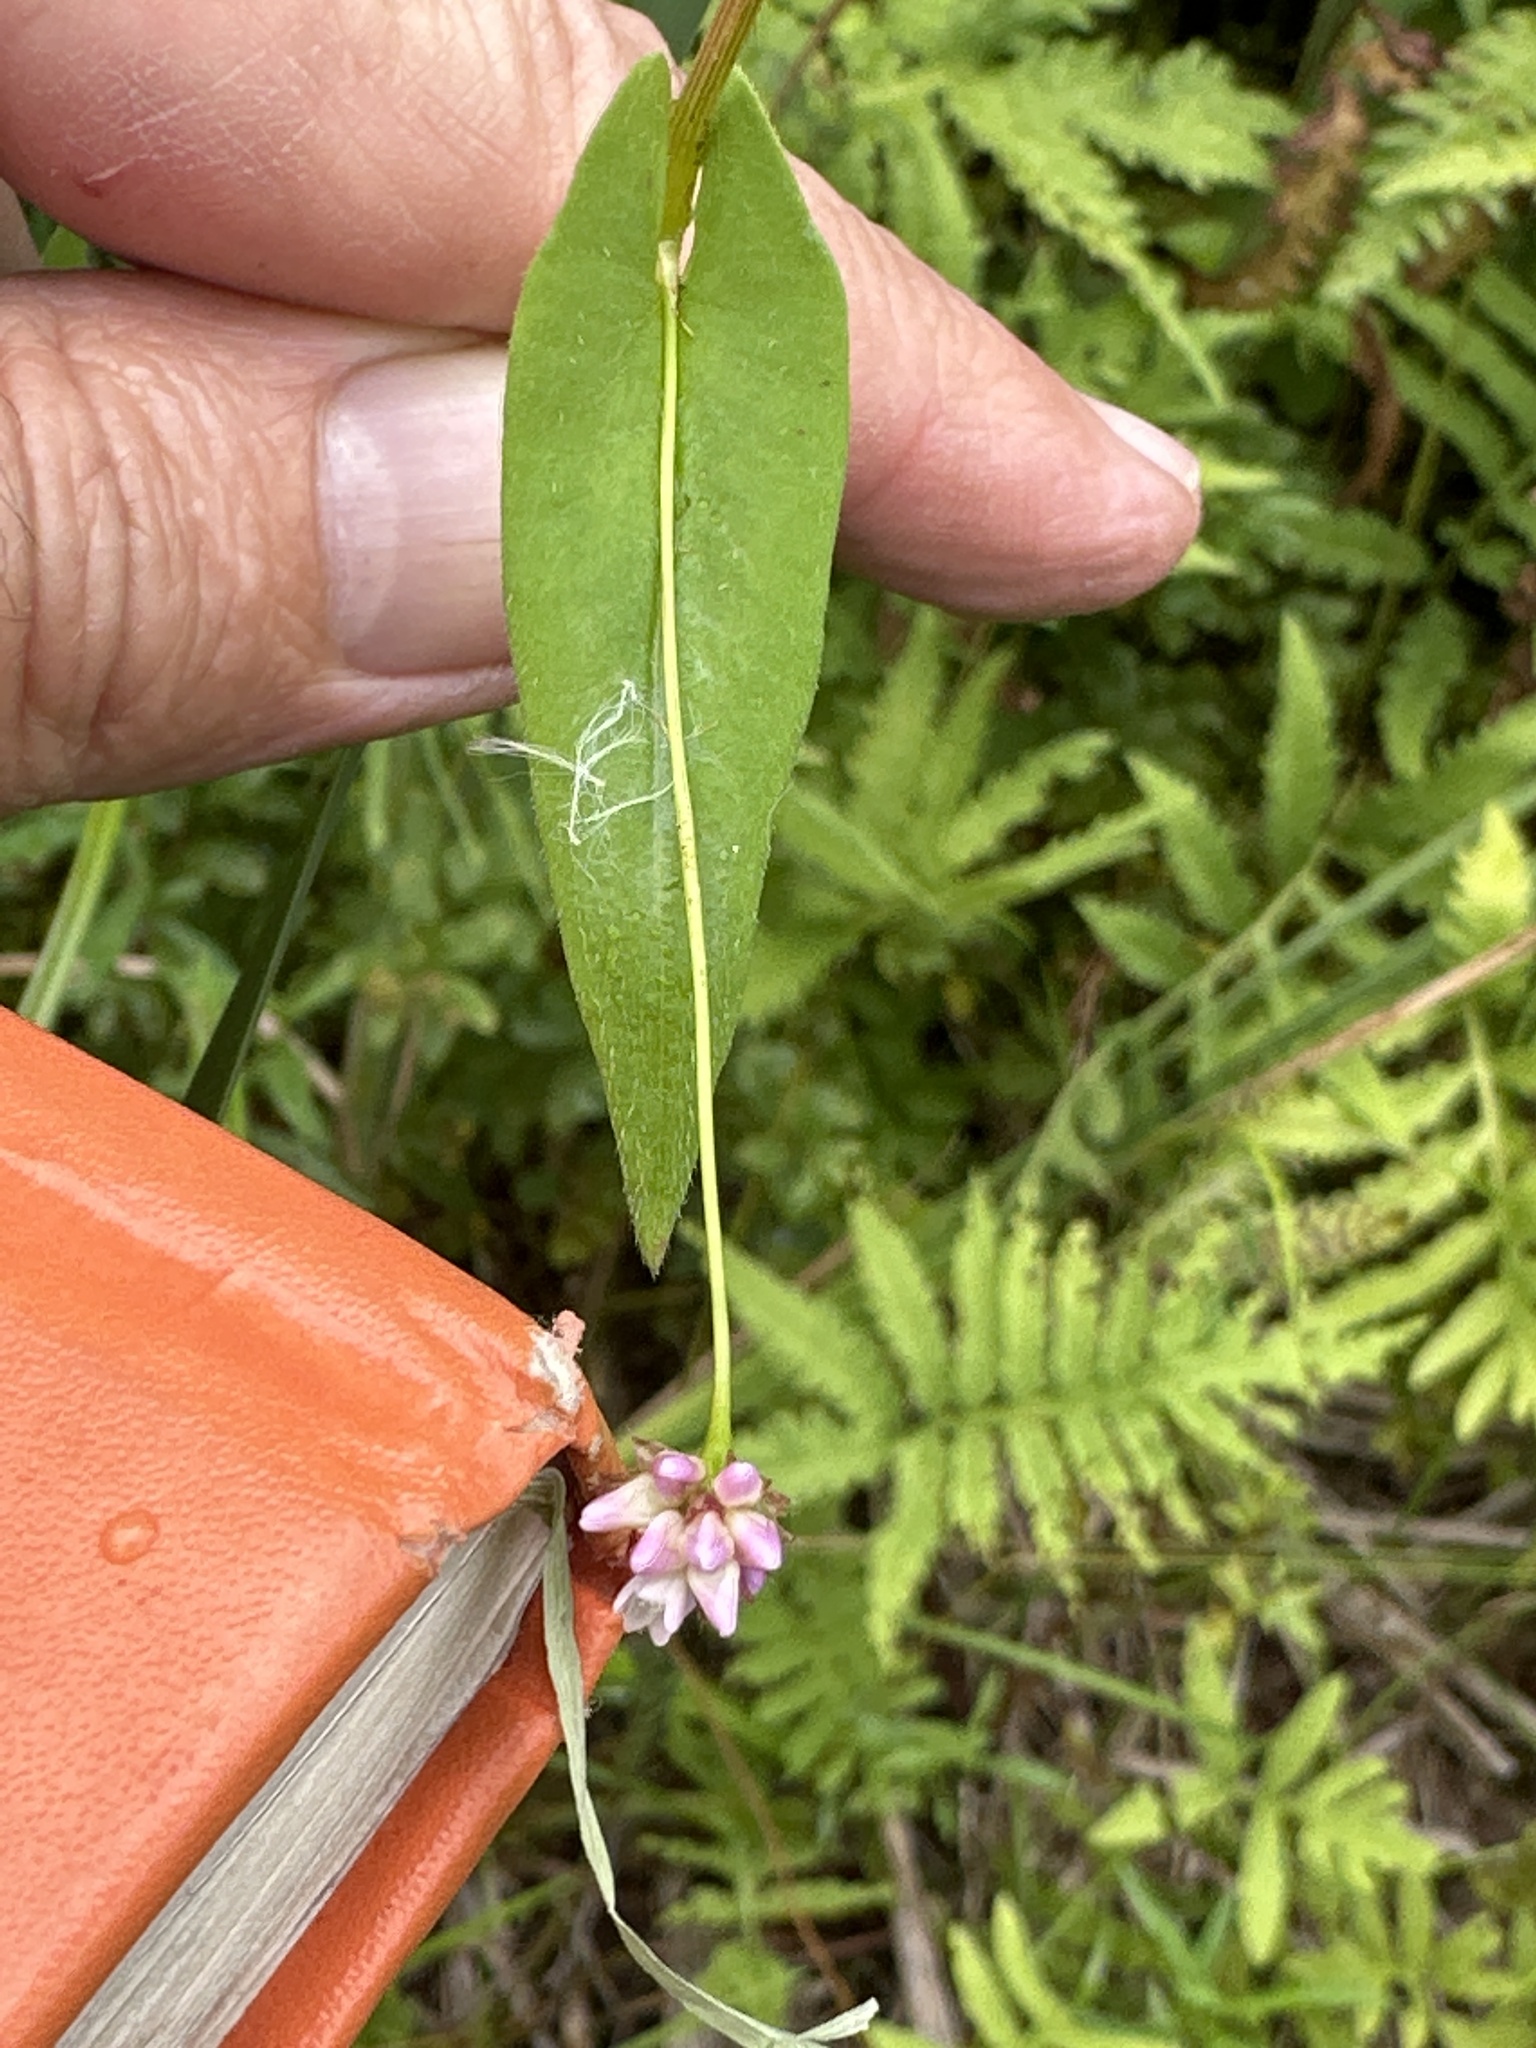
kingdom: Plantae
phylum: Tracheophyta
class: Magnoliopsida
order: Caryophyllales
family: Polygonaceae
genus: Persicaria
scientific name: Persicaria sagittata
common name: American tearthumb
